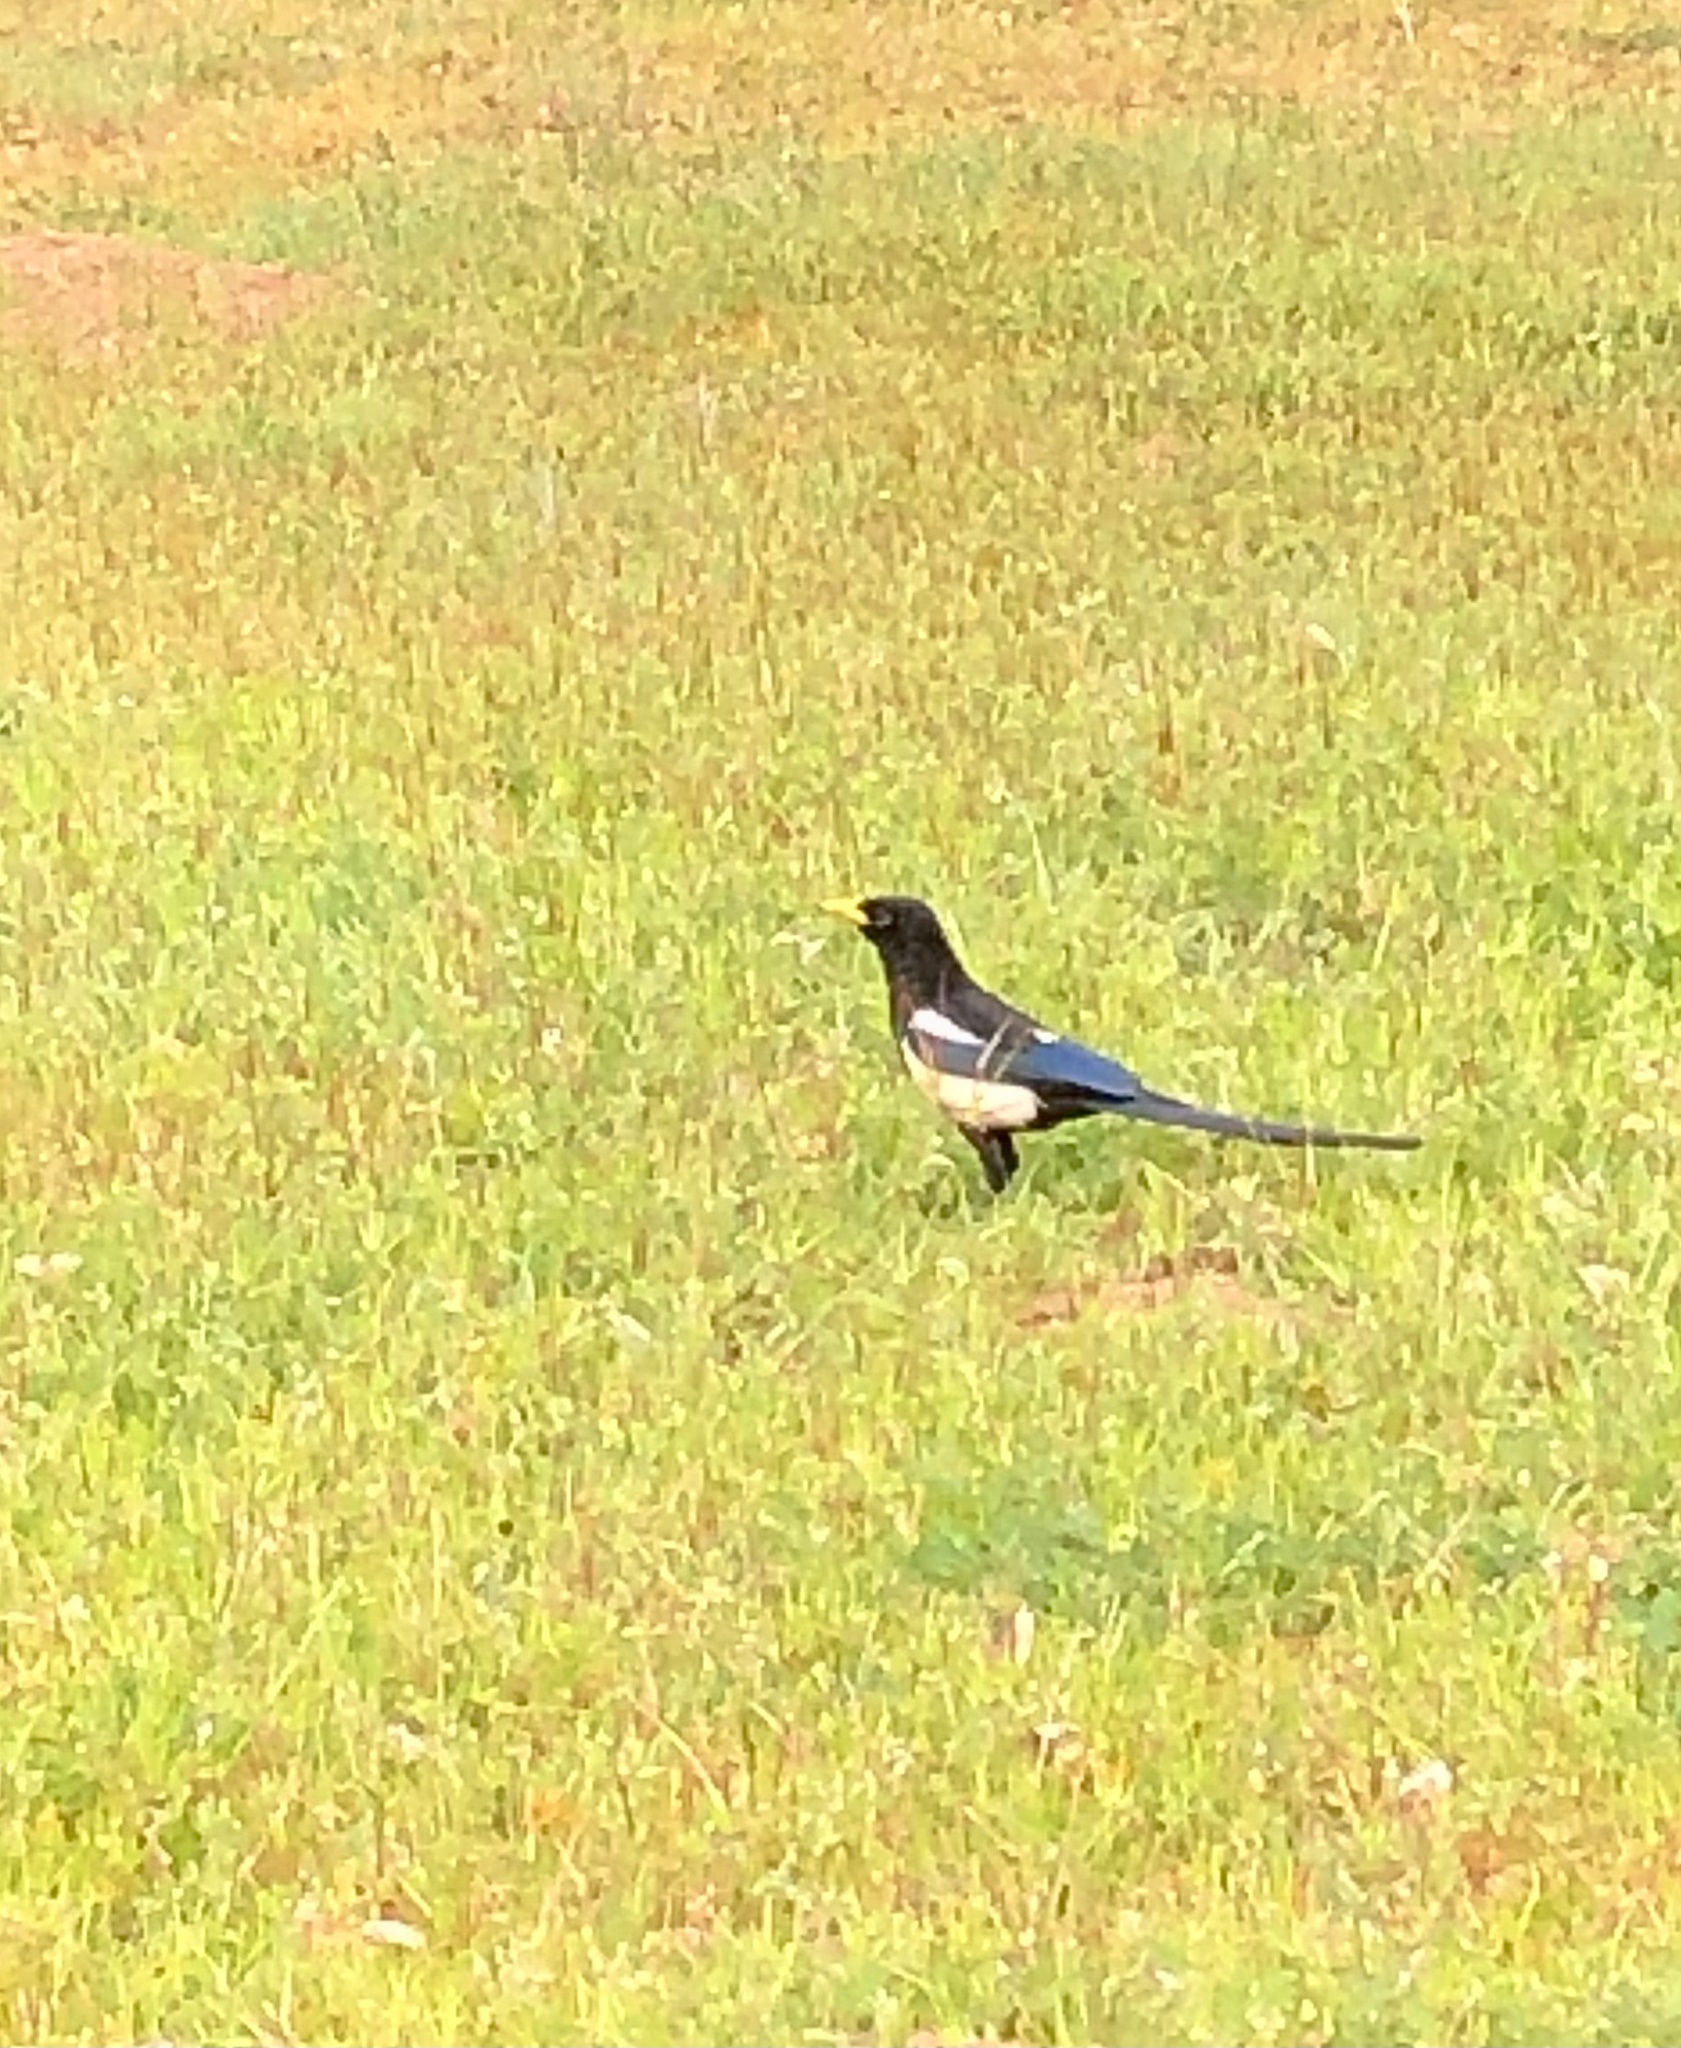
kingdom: Animalia
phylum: Chordata
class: Aves
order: Passeriformes
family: Corvidae
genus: Pica
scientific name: Pica nuttalli
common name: Yellow-billed magpie
